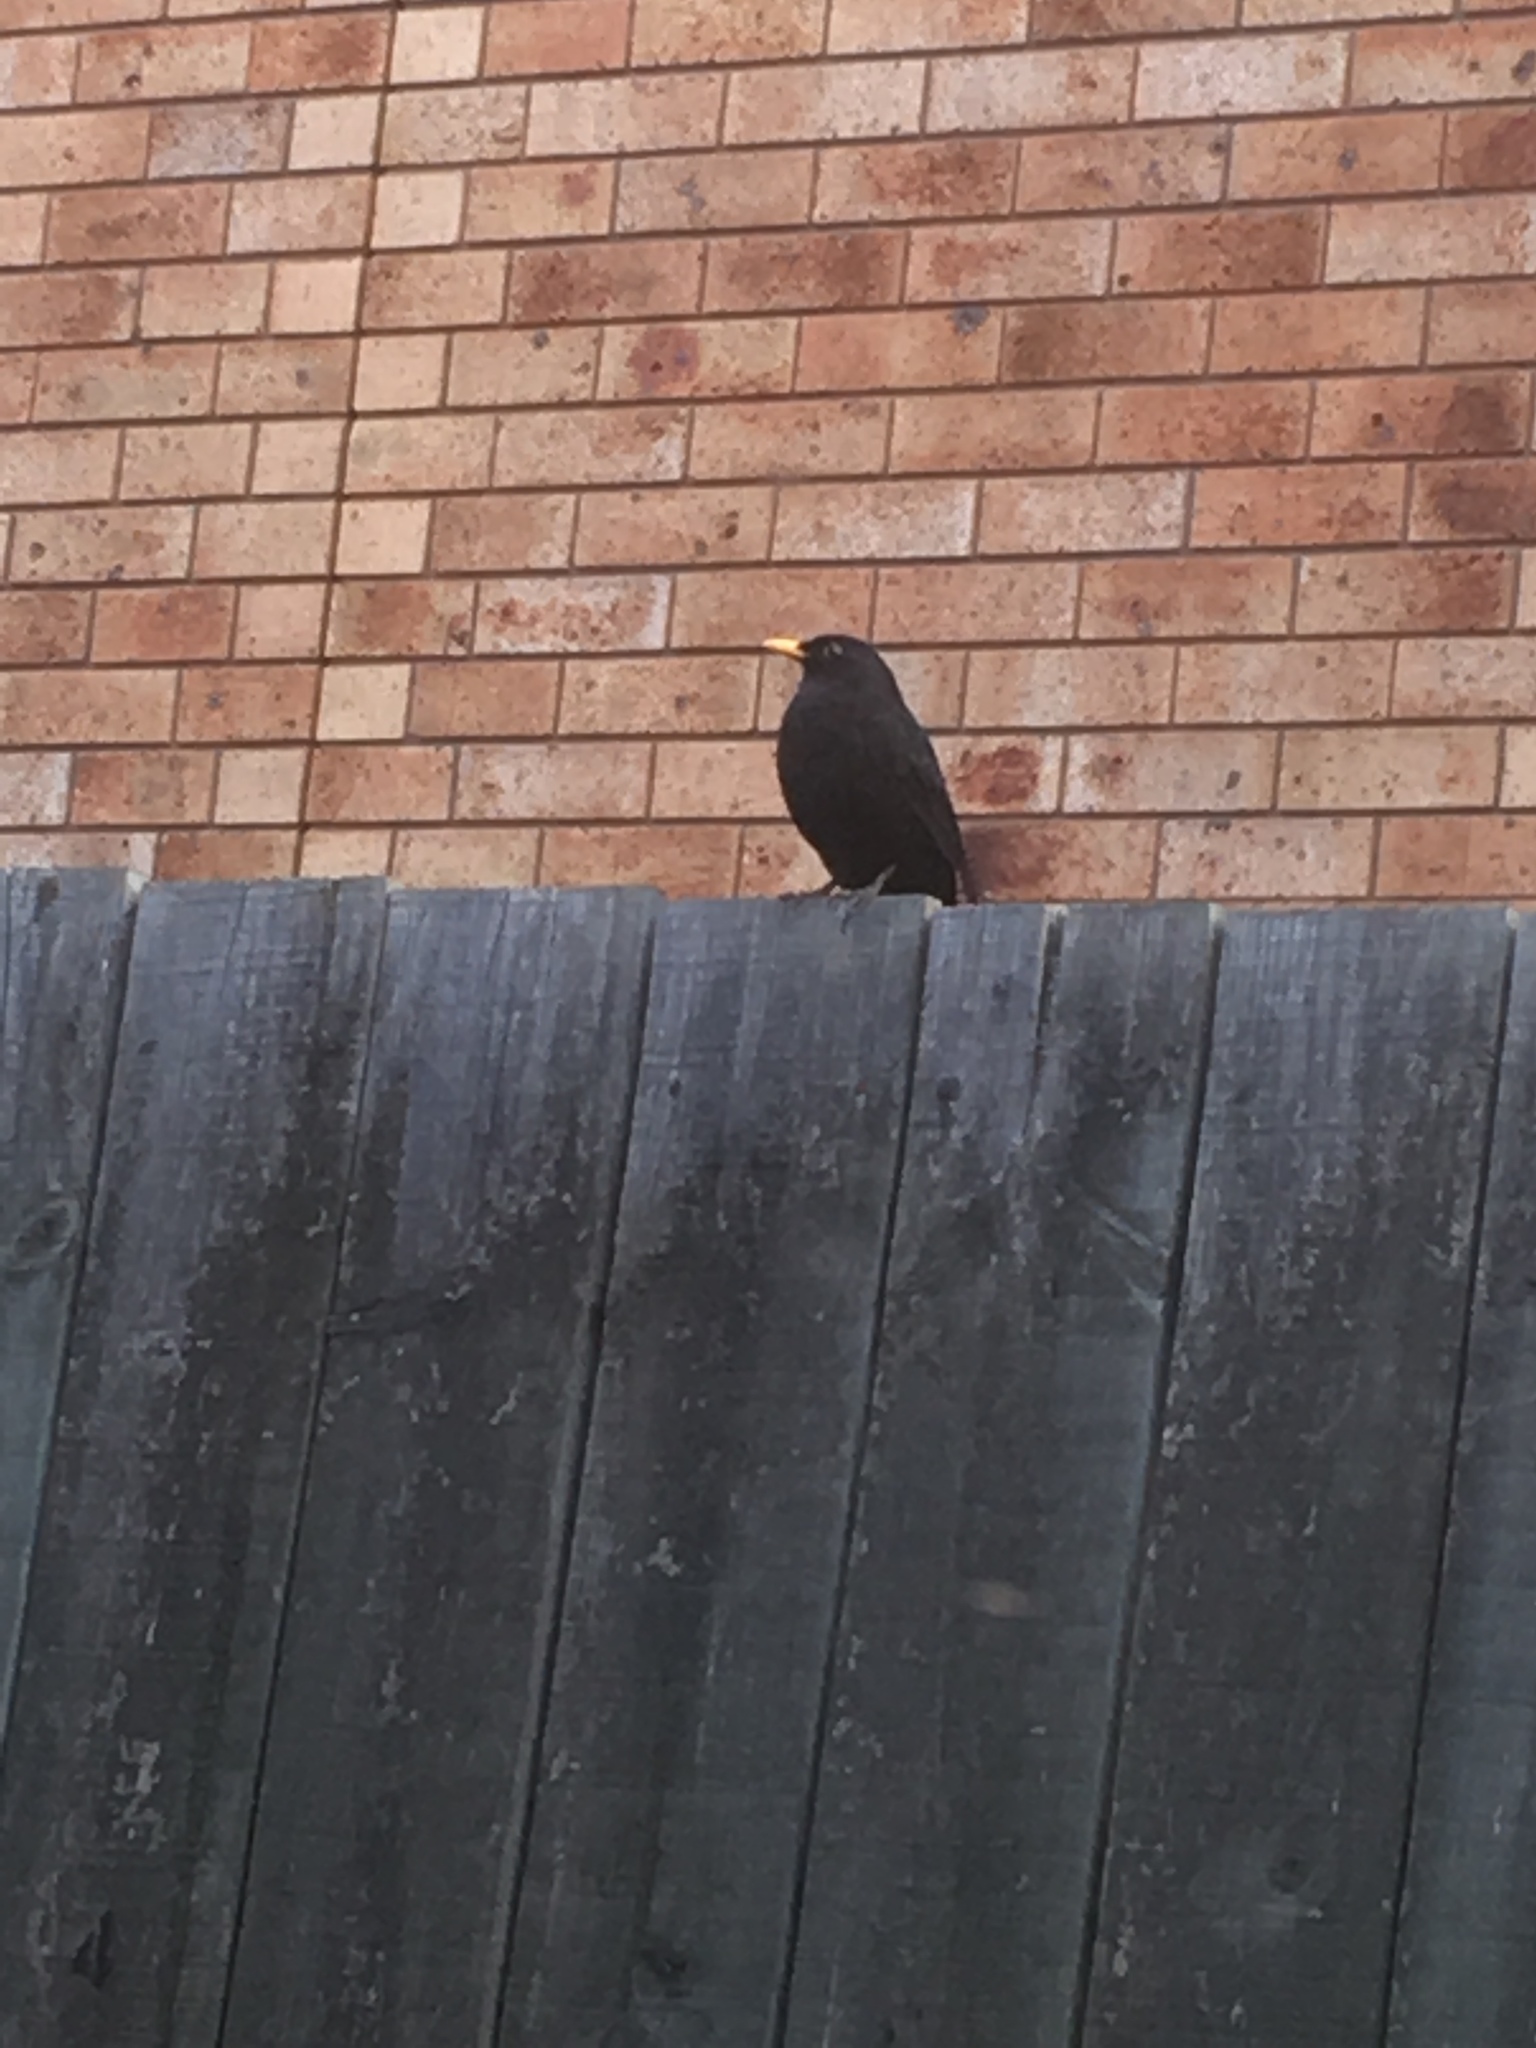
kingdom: Animalia
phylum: Chordata
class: Aves
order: Passeriformes
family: Turdidae
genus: Turdus
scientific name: Turdus merula
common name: Common blackbird
